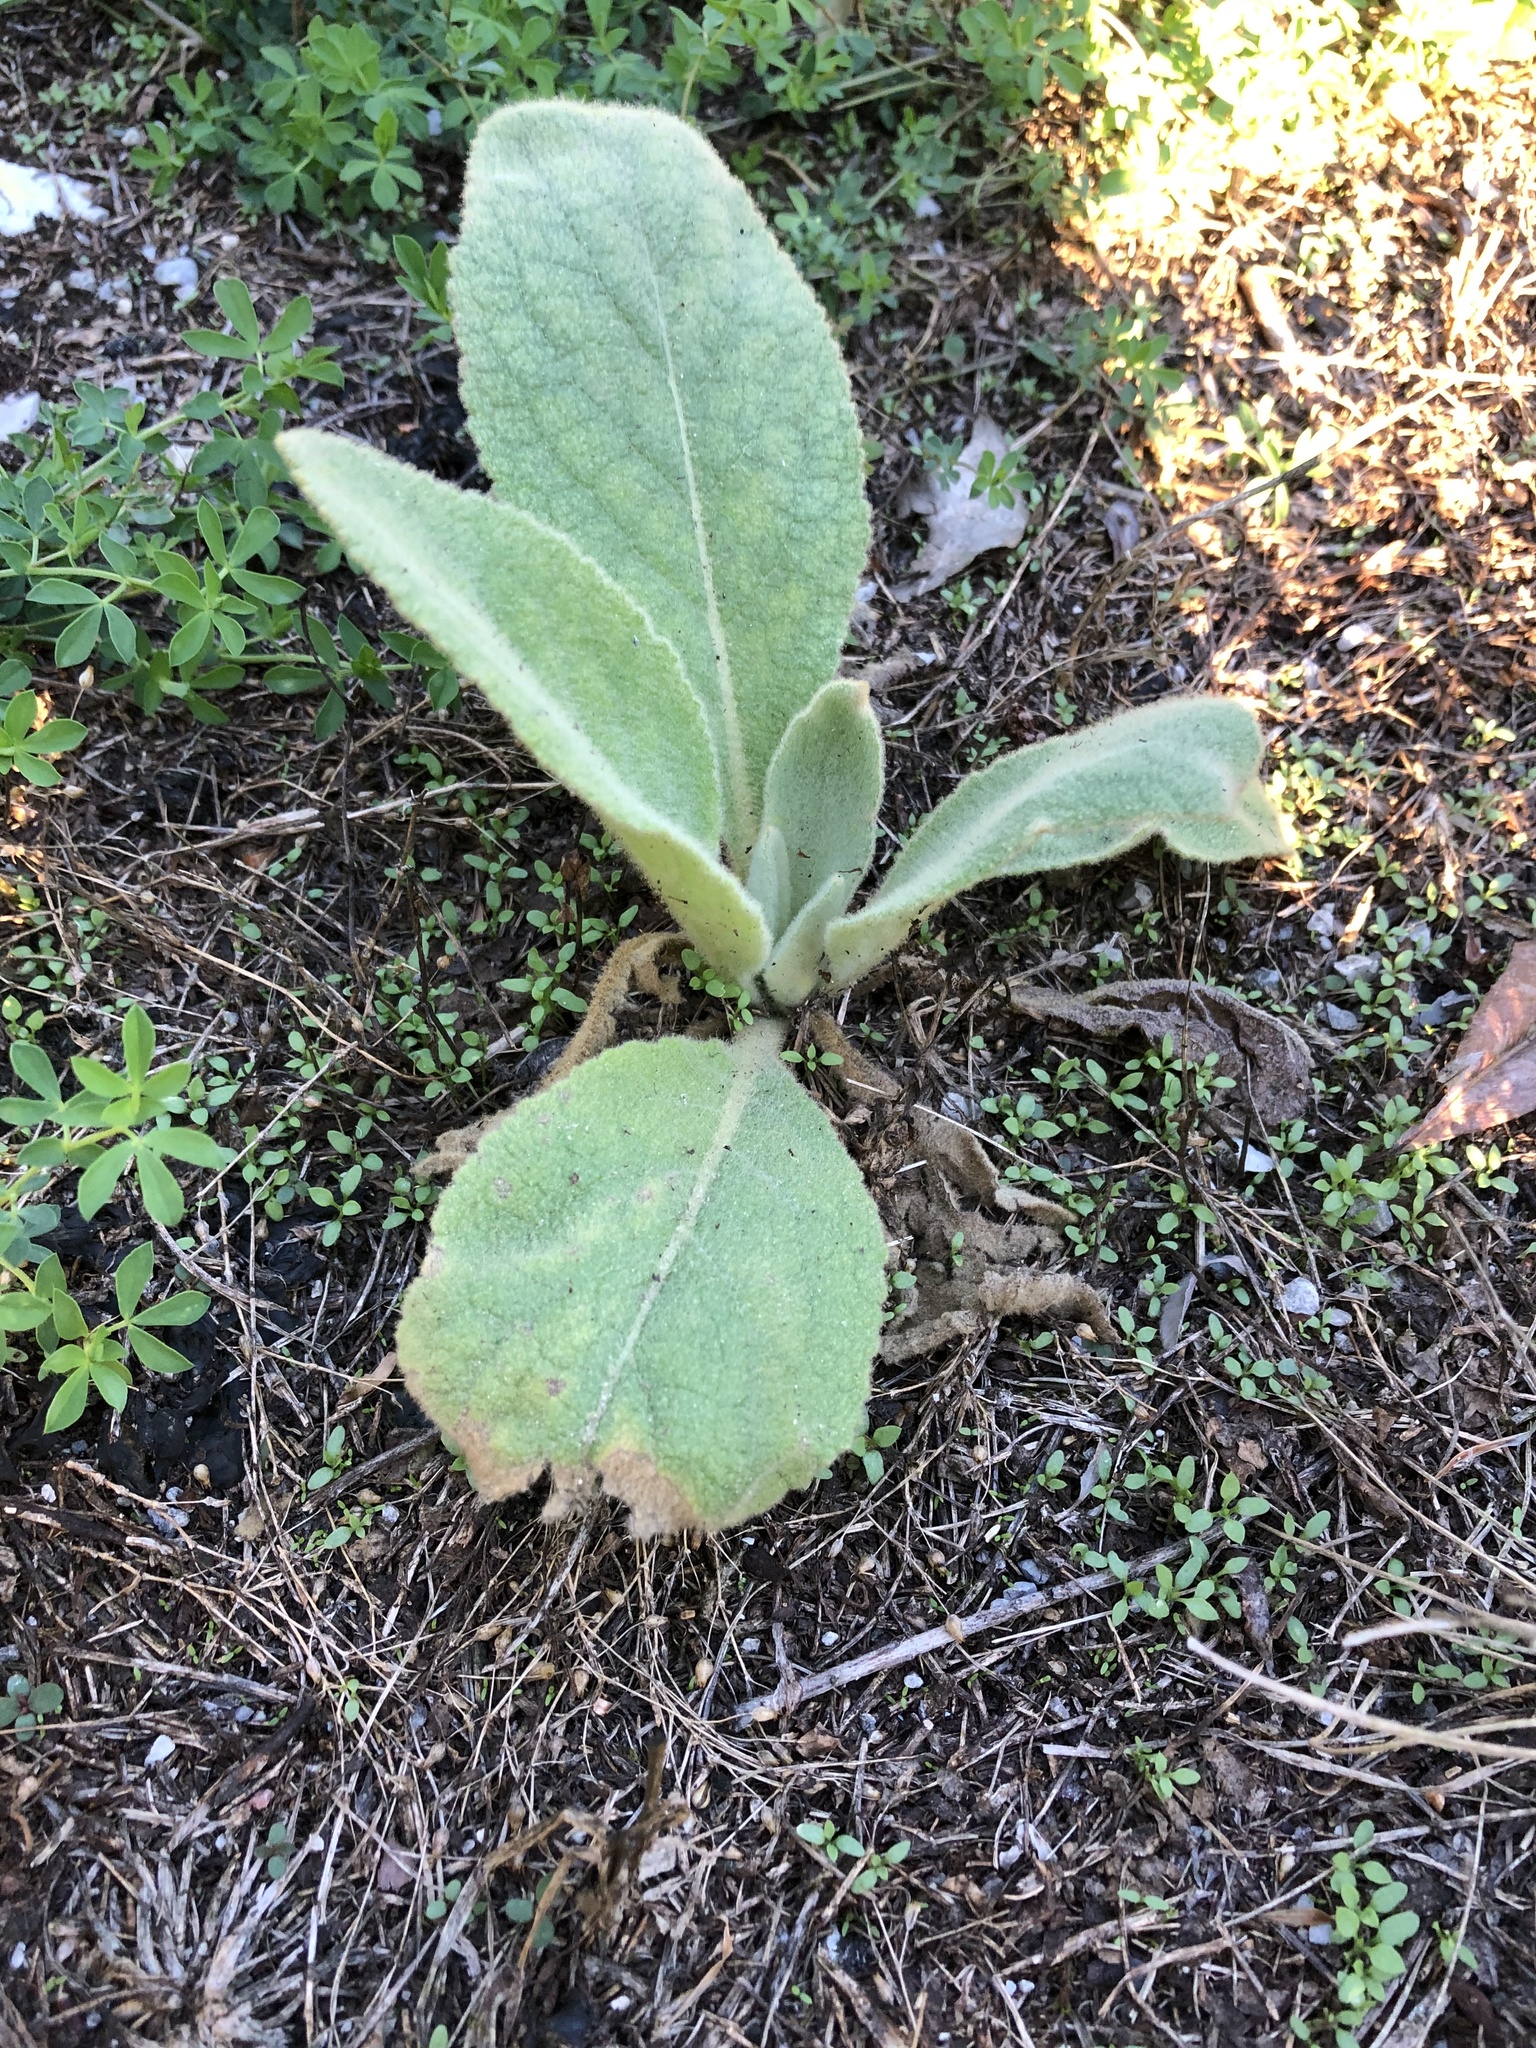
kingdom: Plantae
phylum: Tracheophyta
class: Magnoliopsida
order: Lamiales
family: Scrophulariaceae
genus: Verbascum
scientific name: Verbascum thapsus
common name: Common mullein
